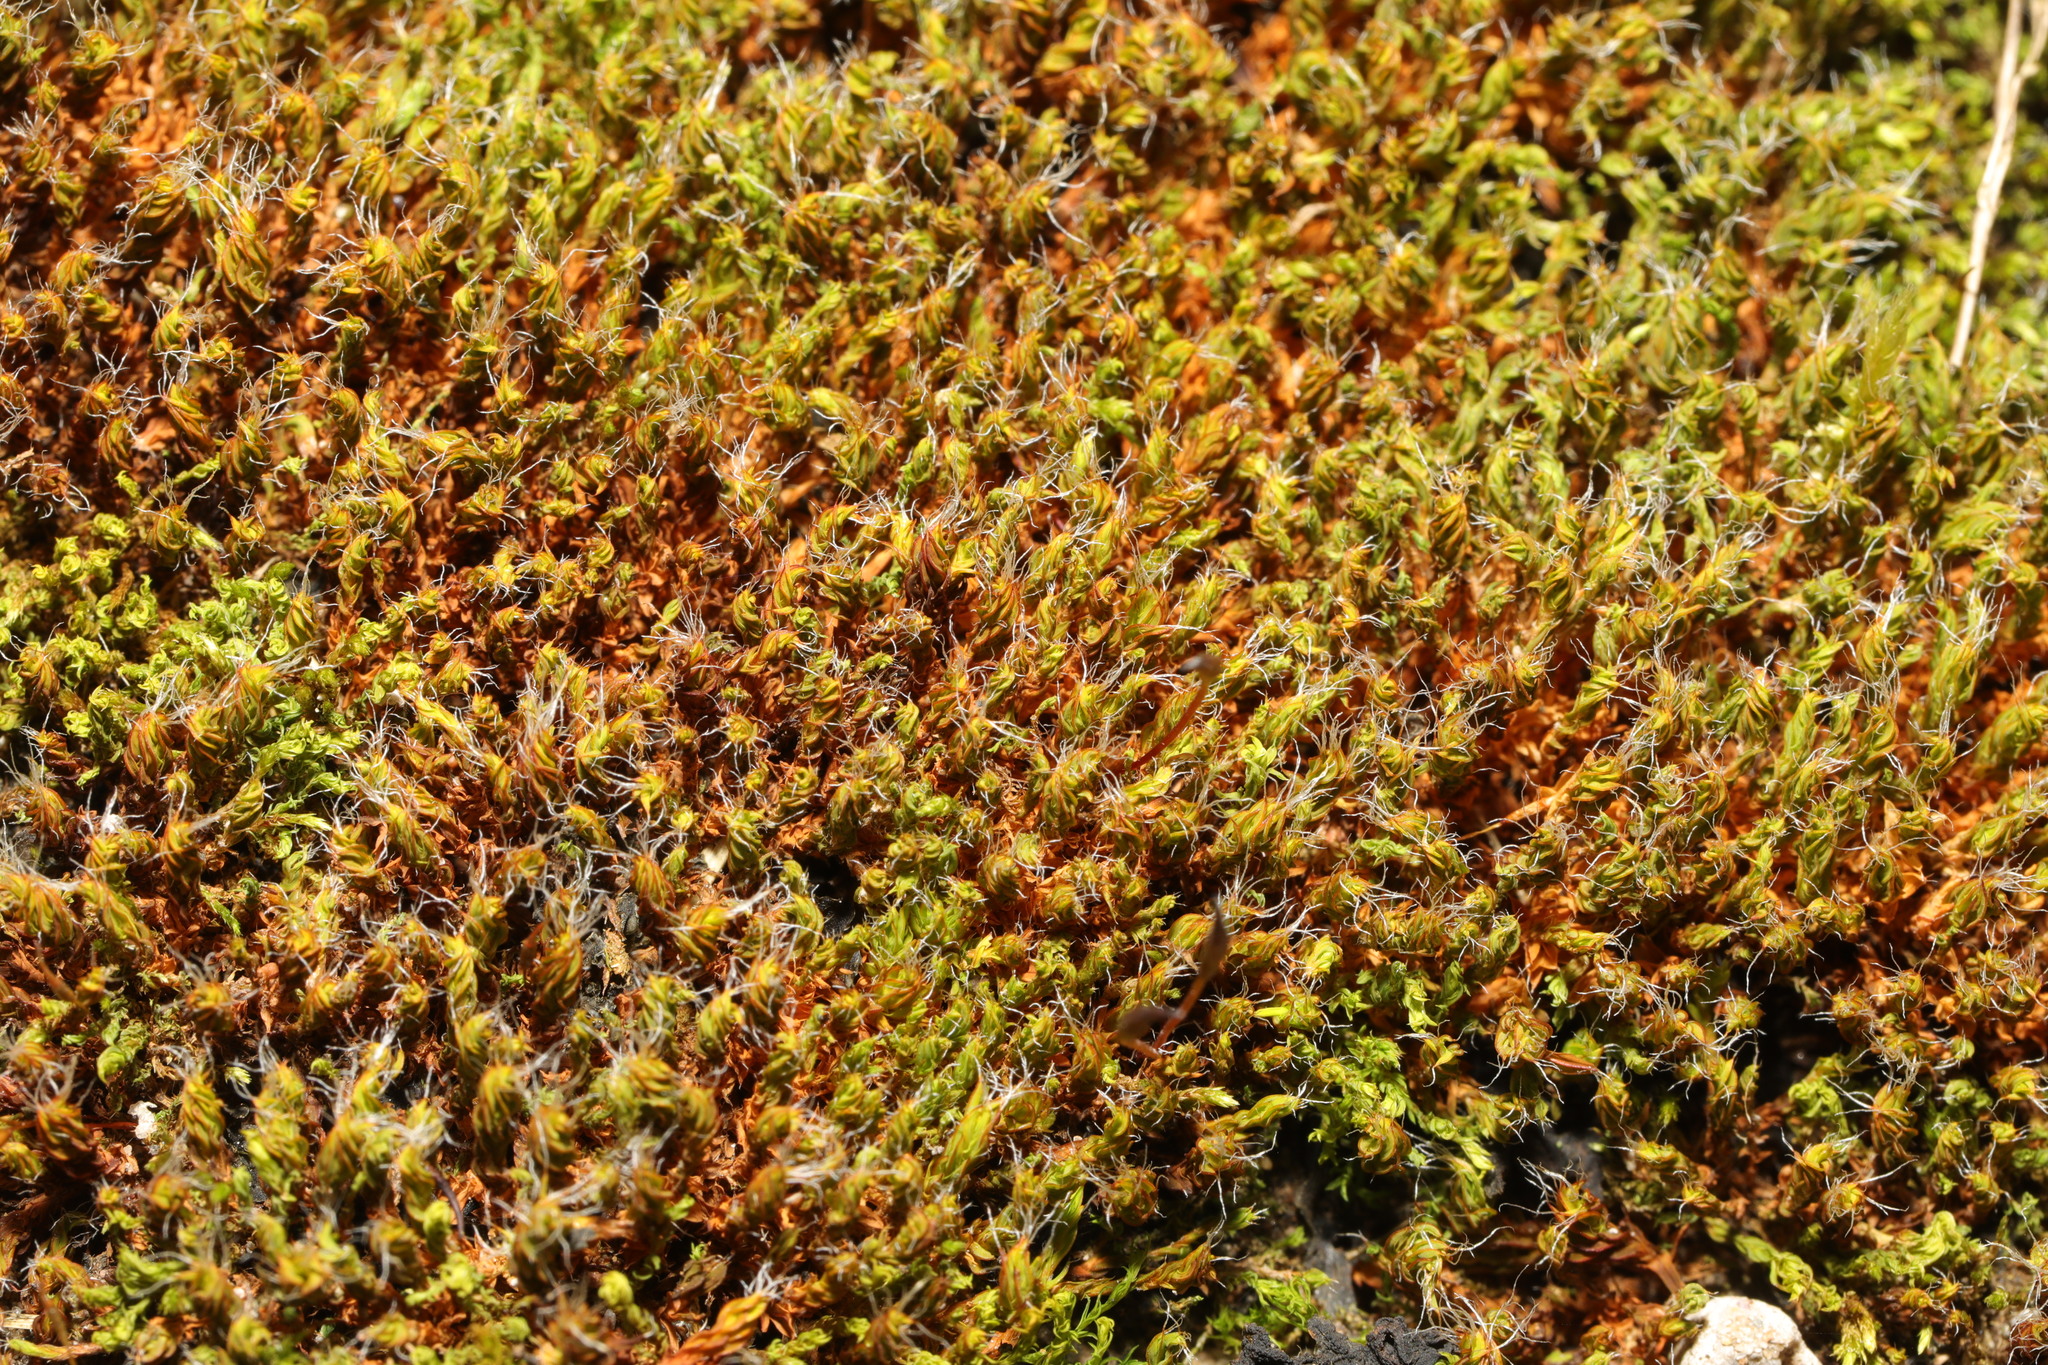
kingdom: Plantae
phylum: Bryophyta
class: Bryopsida
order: Pottiales
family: Pottiaceae
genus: Syntrichia
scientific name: Syntrichia ruralis
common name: Sidewalk screw moss
